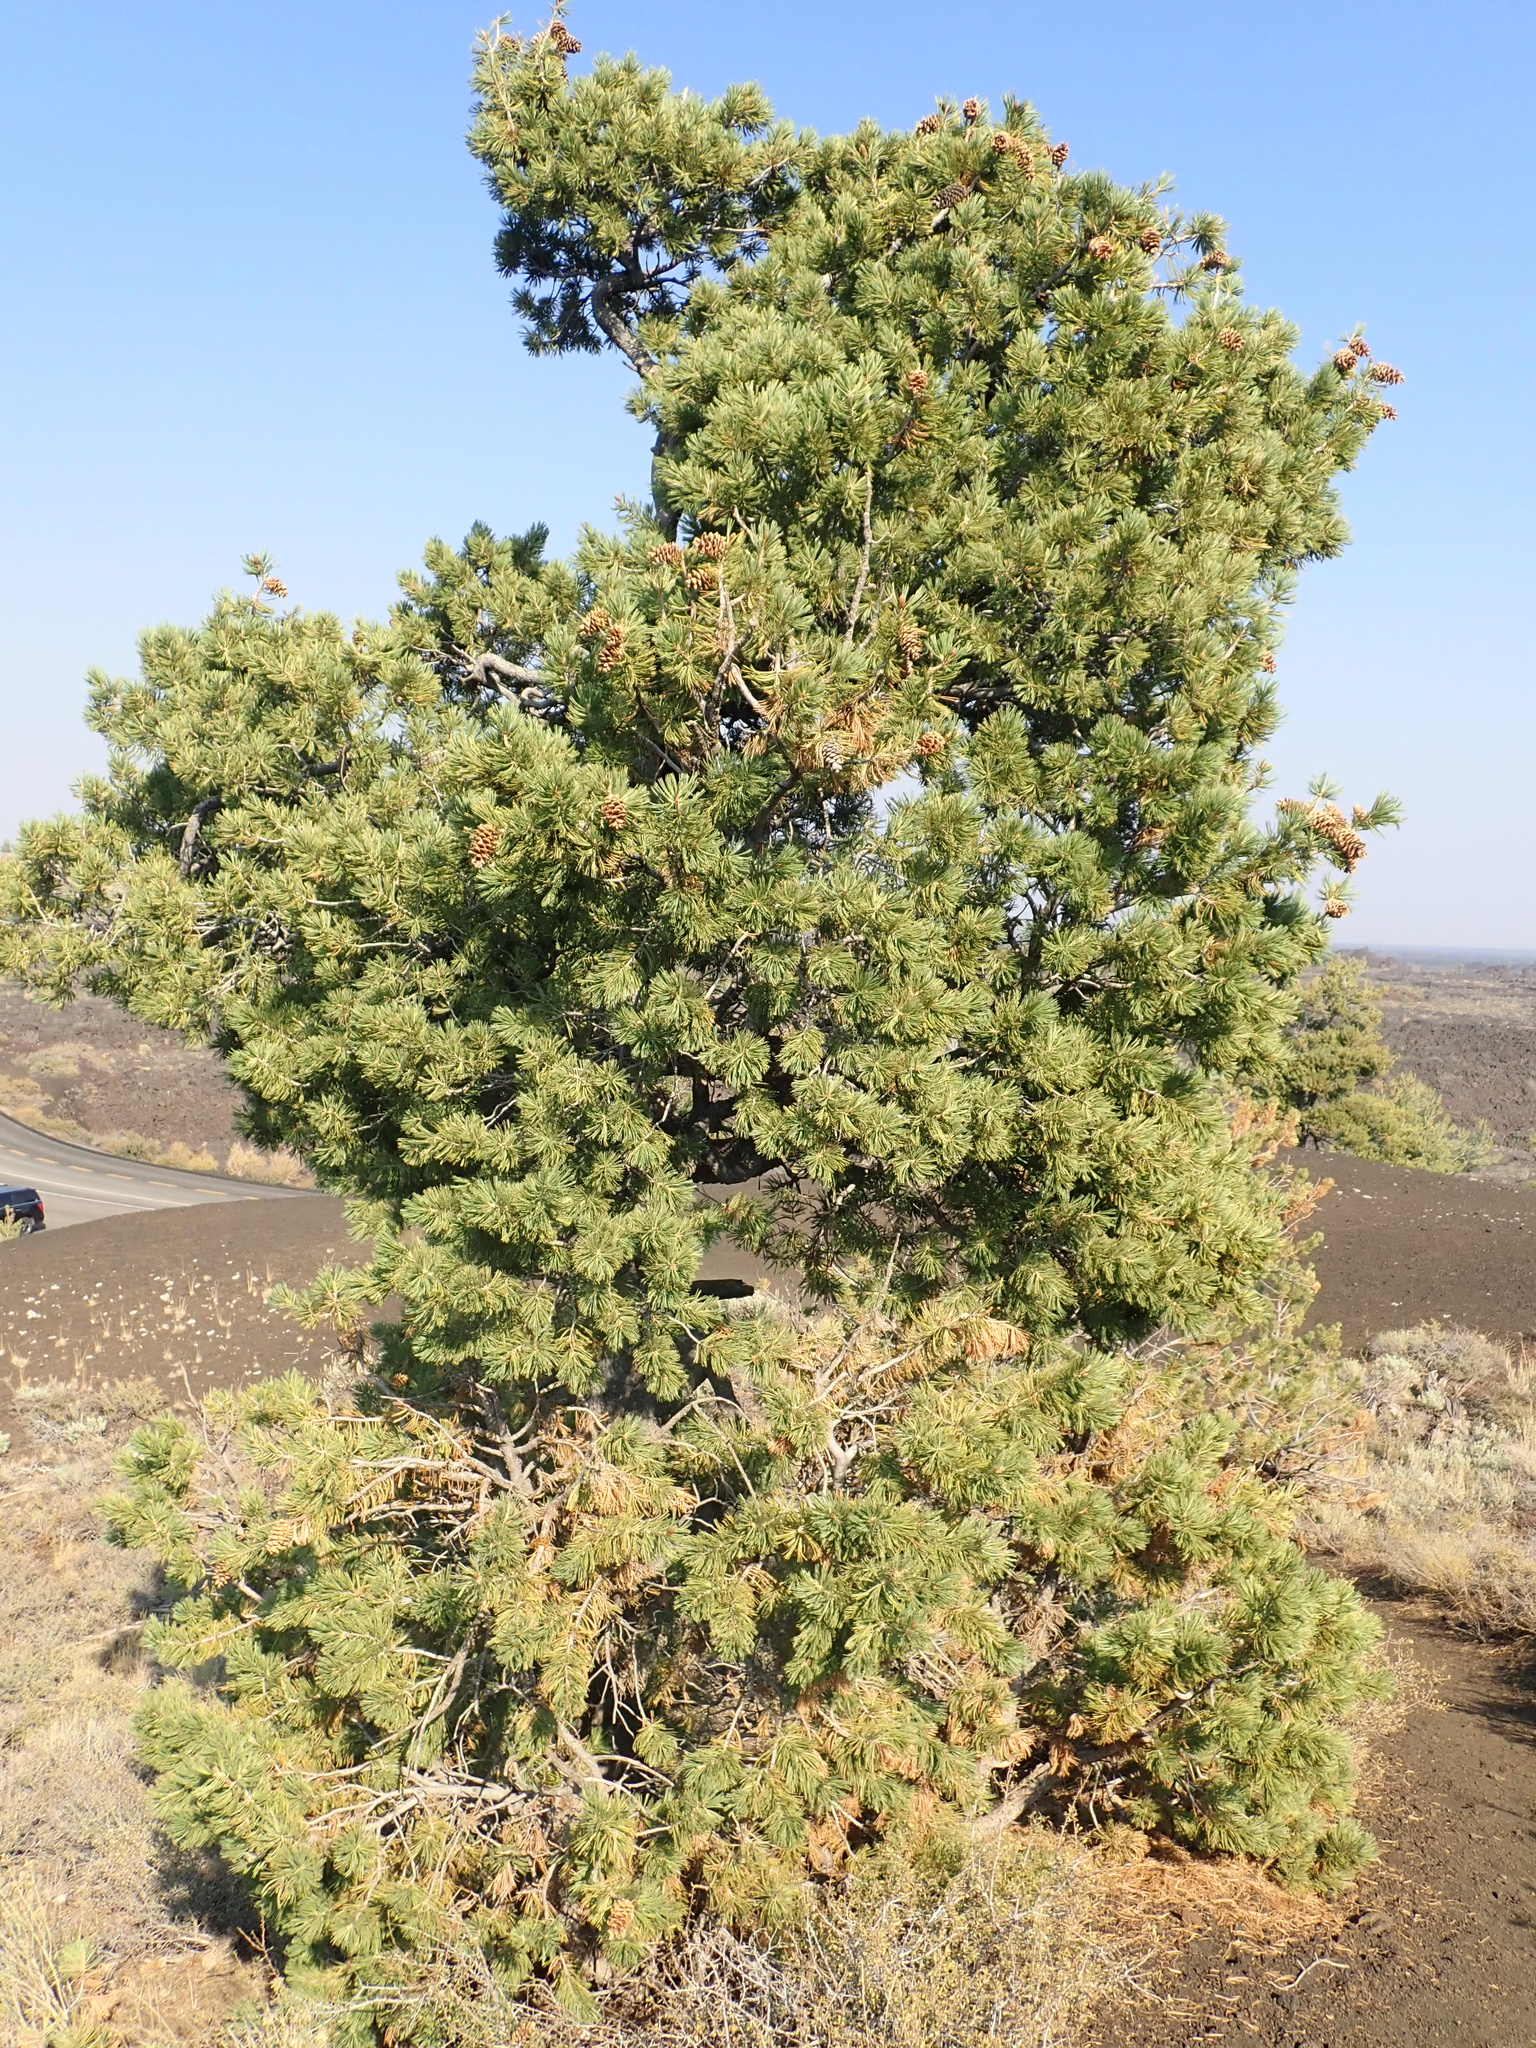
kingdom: Plantae
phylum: Tracheophyta
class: Pinopsida
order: Pinales
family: Pinaceae
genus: Pinus
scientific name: Pinus flexilis
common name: Limber pine
